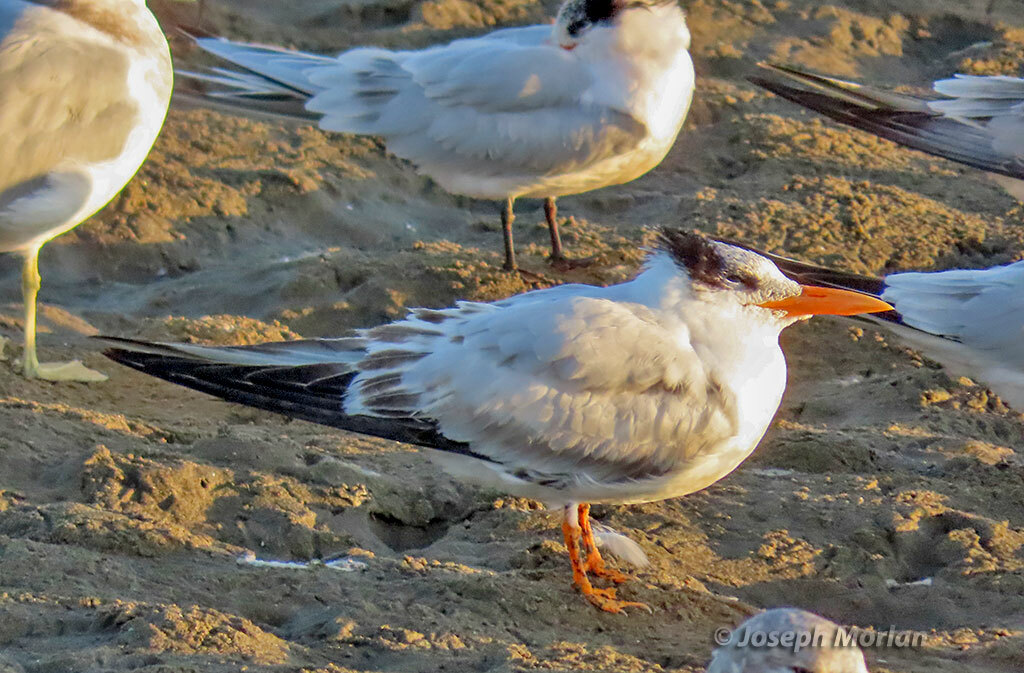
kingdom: Animalia
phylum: Chordata
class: Aves
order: Charadriiformes
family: Laridae
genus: Thalasseus
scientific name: Thalasseus maximus
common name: Royal tern
